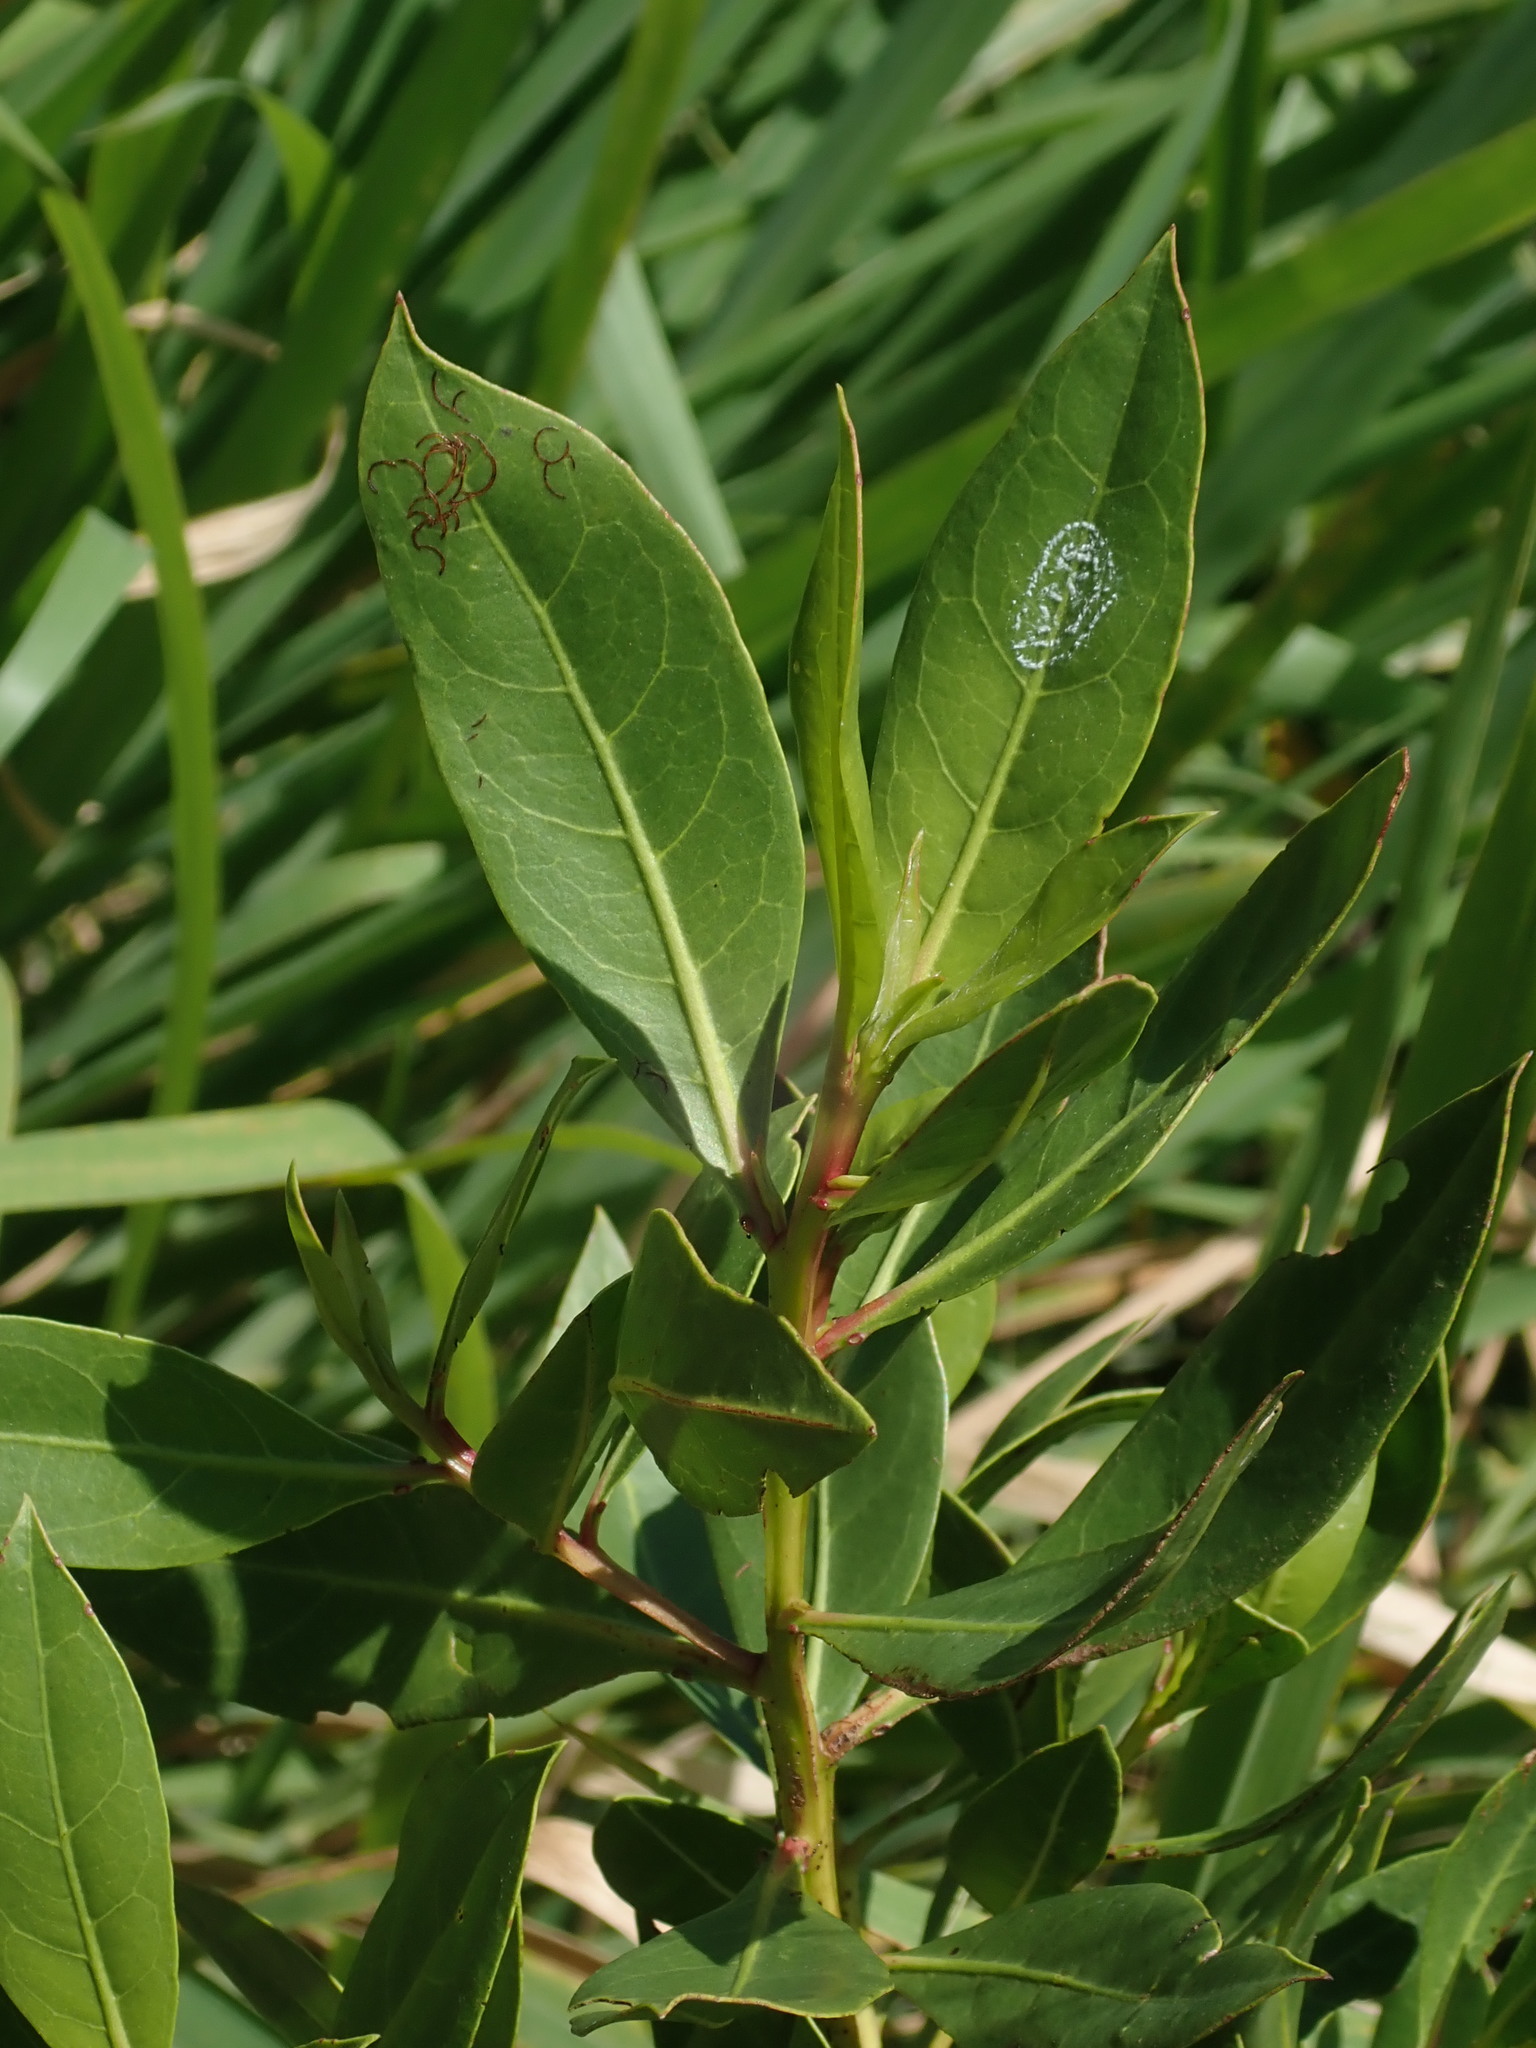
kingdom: Plantae
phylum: Tracheophyta
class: Magnoliopsida
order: Myrtales
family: Combretaceae
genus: Conocarpus
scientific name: Conocarpus erectus
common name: Button mangrove
